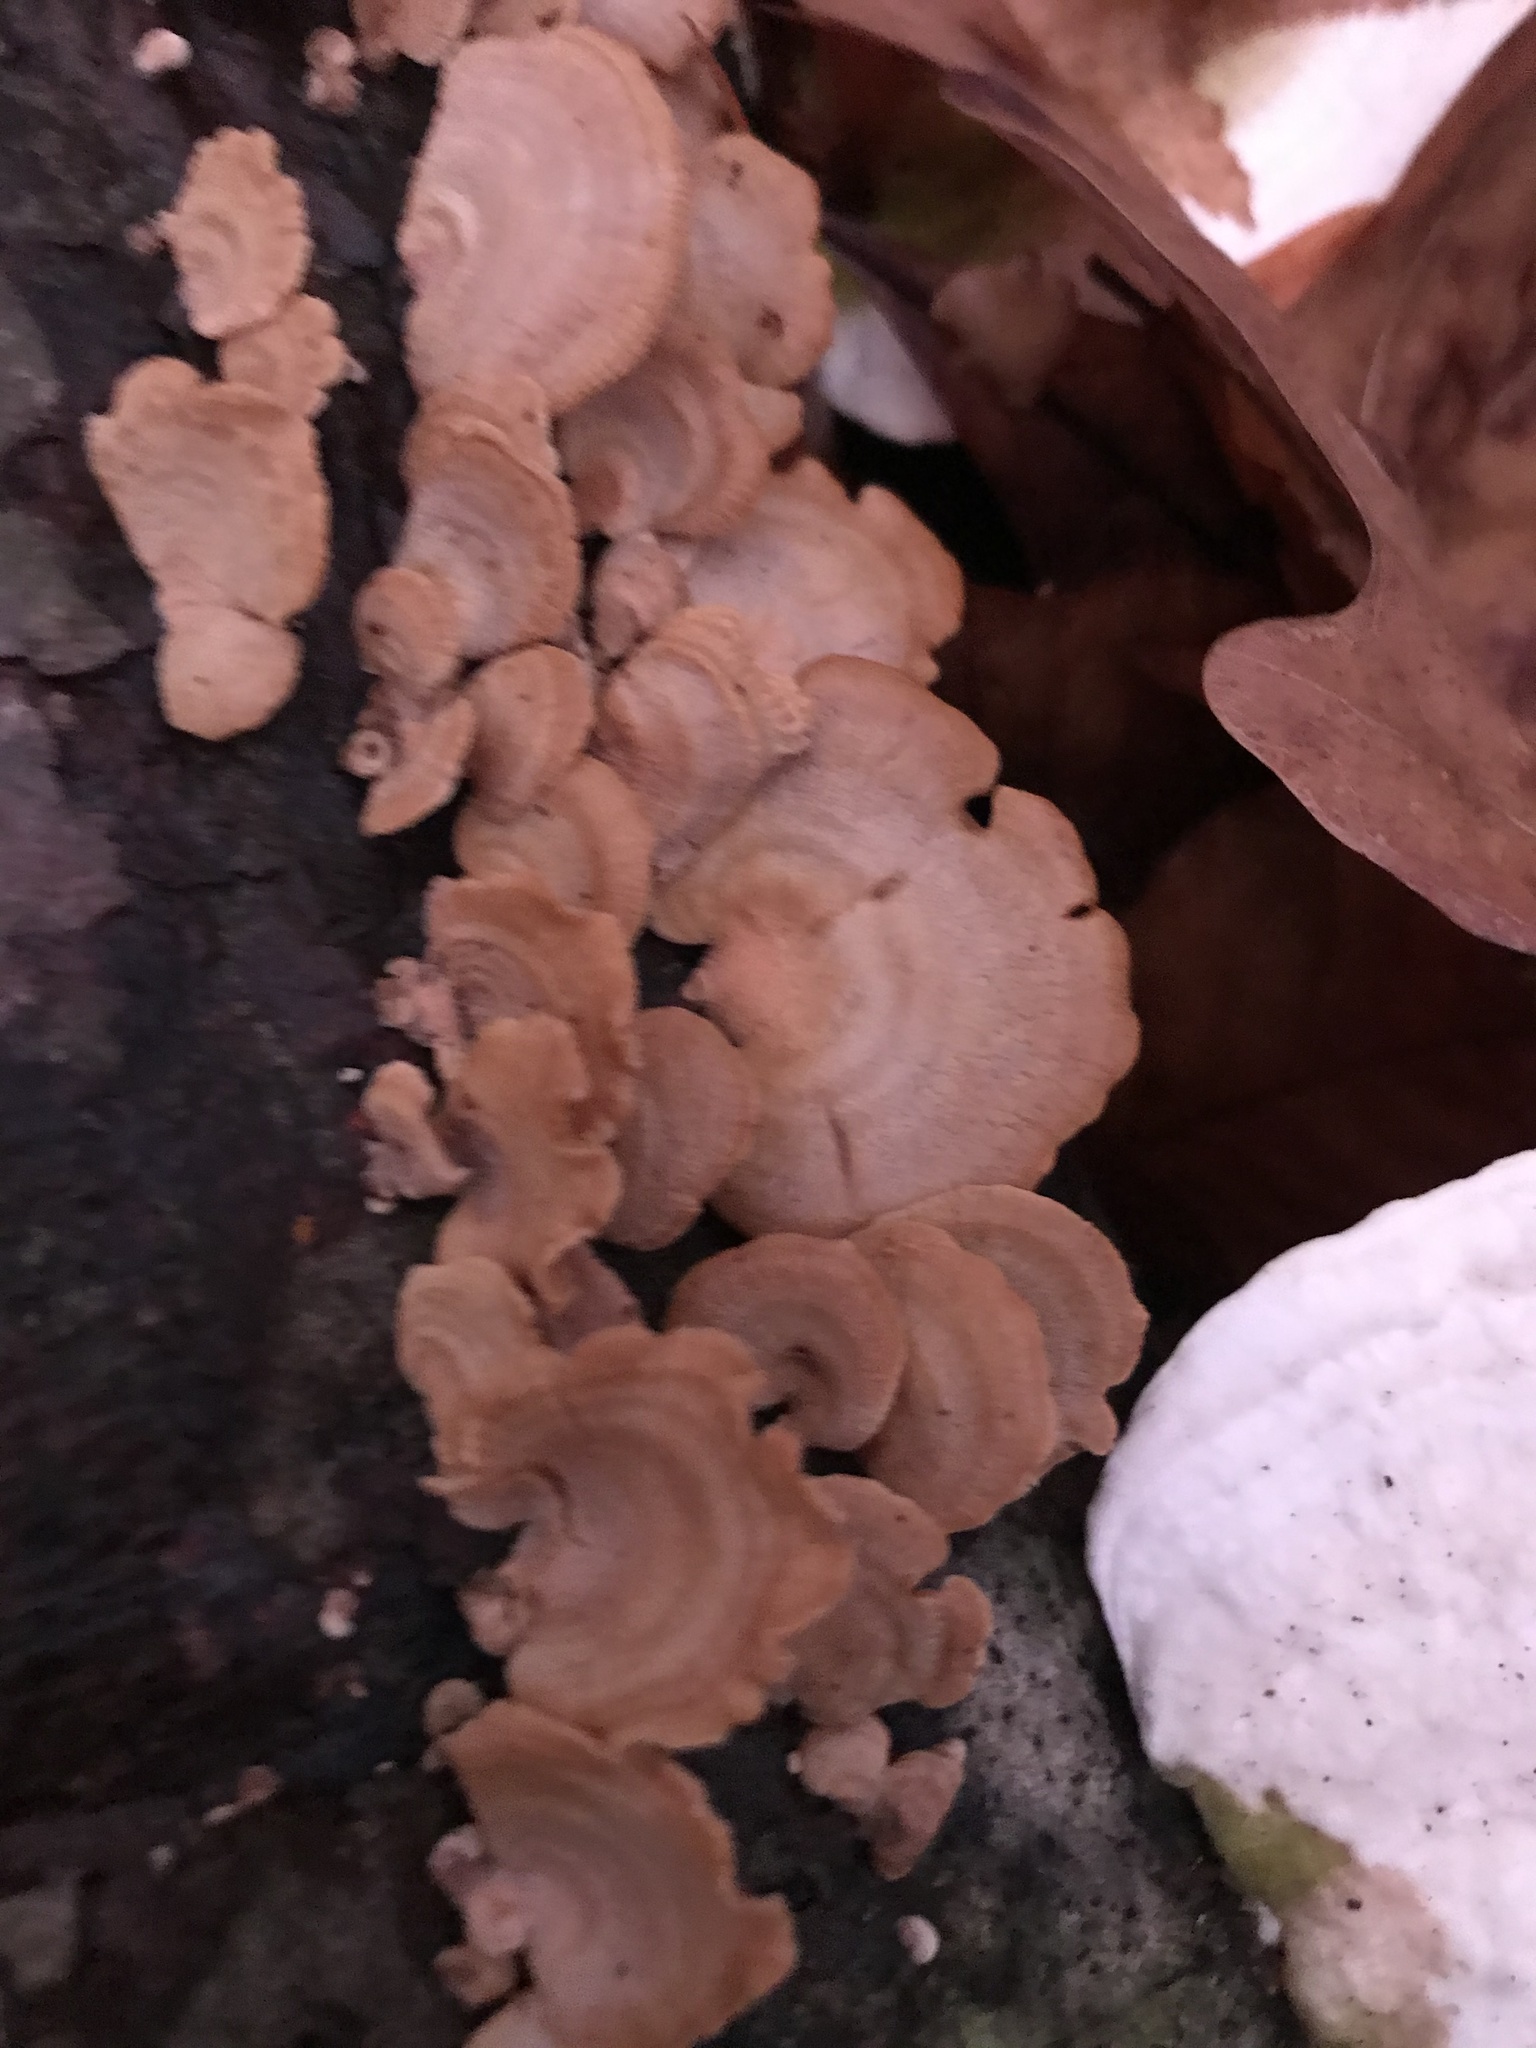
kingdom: Fungi
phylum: Basidiomycota
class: Agaricomycetes
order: Hymenochaetales
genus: Trichaptum
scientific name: Trichaptum biforme
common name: Violet-toothed polypore
